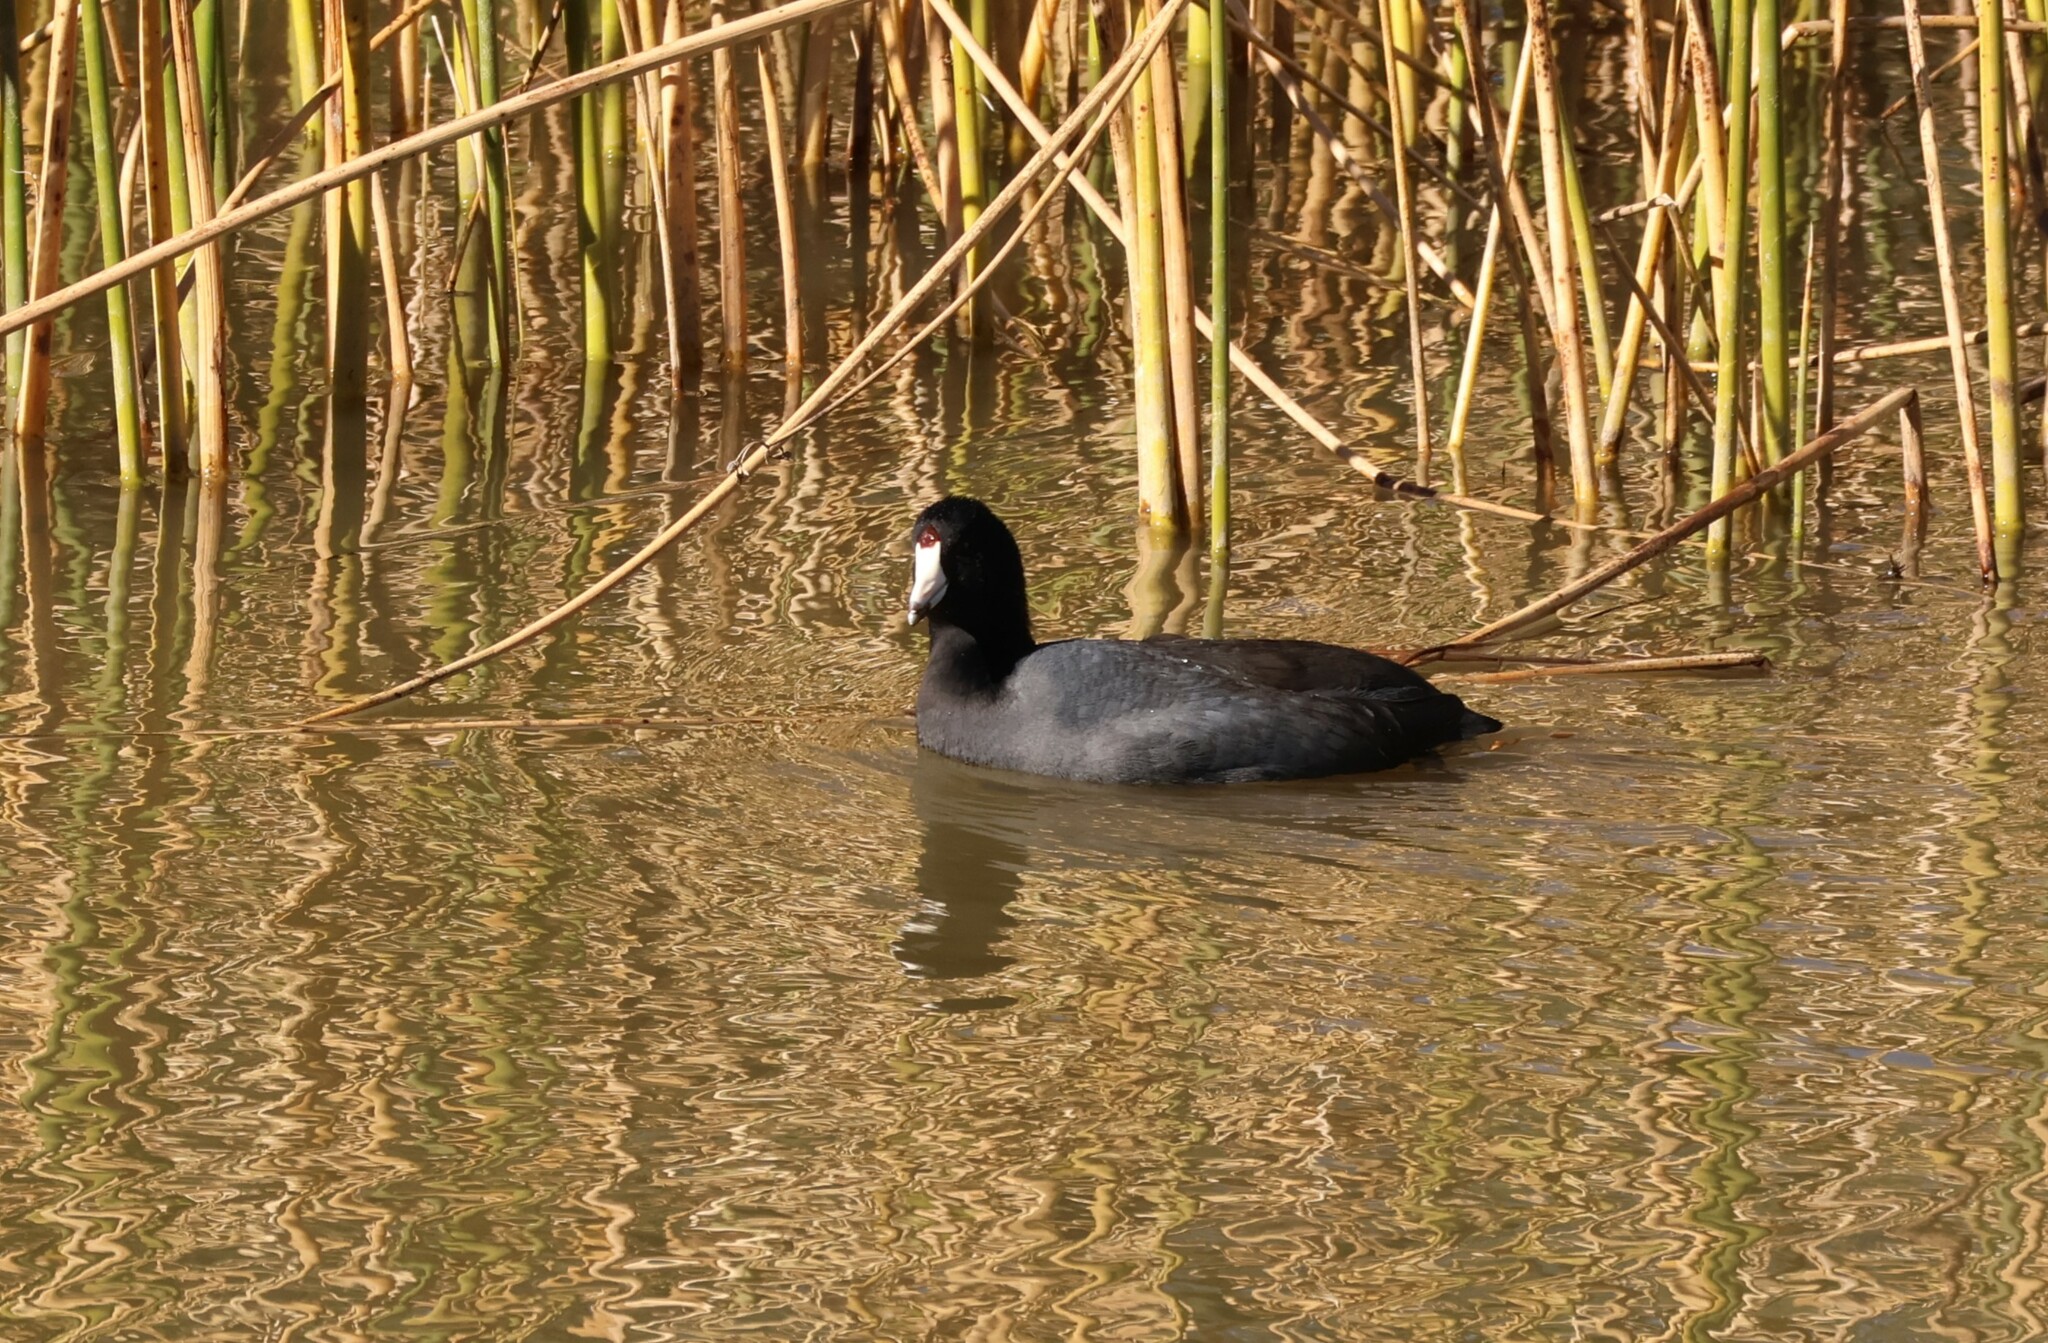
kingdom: Animalia
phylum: Chordata
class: Aves
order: Gruiformes
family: Rallidae
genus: Fulica
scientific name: Fulica americana
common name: American coot
